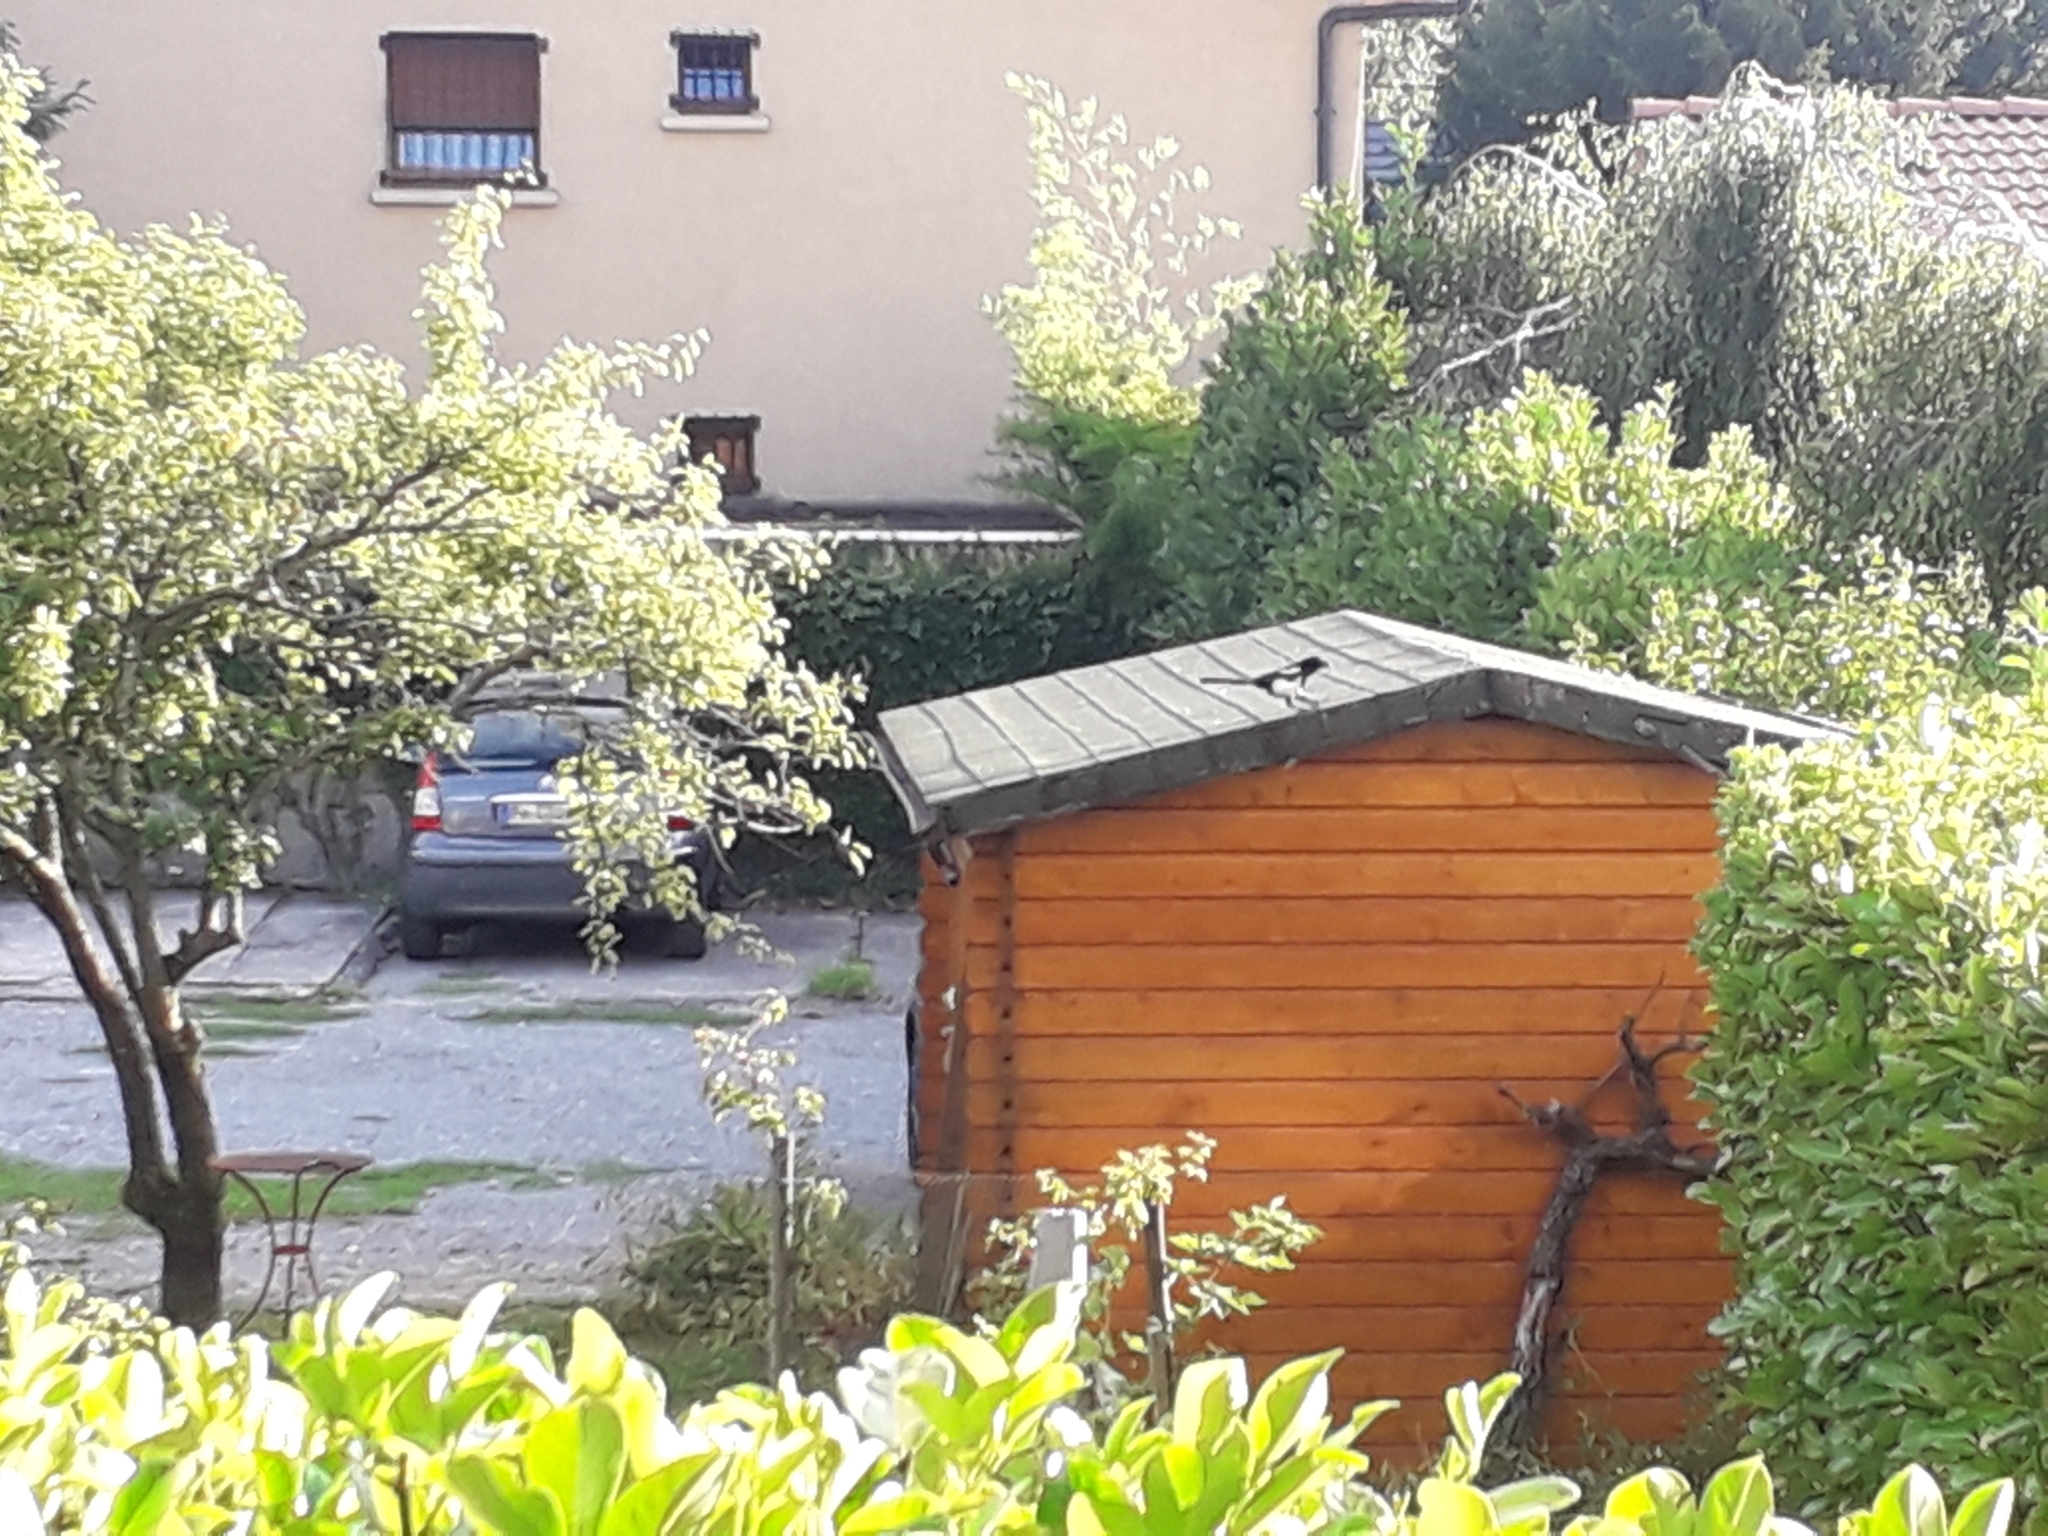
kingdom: Animalia
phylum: Chordata
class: Aves
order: Passeriformes
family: Corvidae
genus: Pica
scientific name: Pica pica
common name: Eurasian magpie
